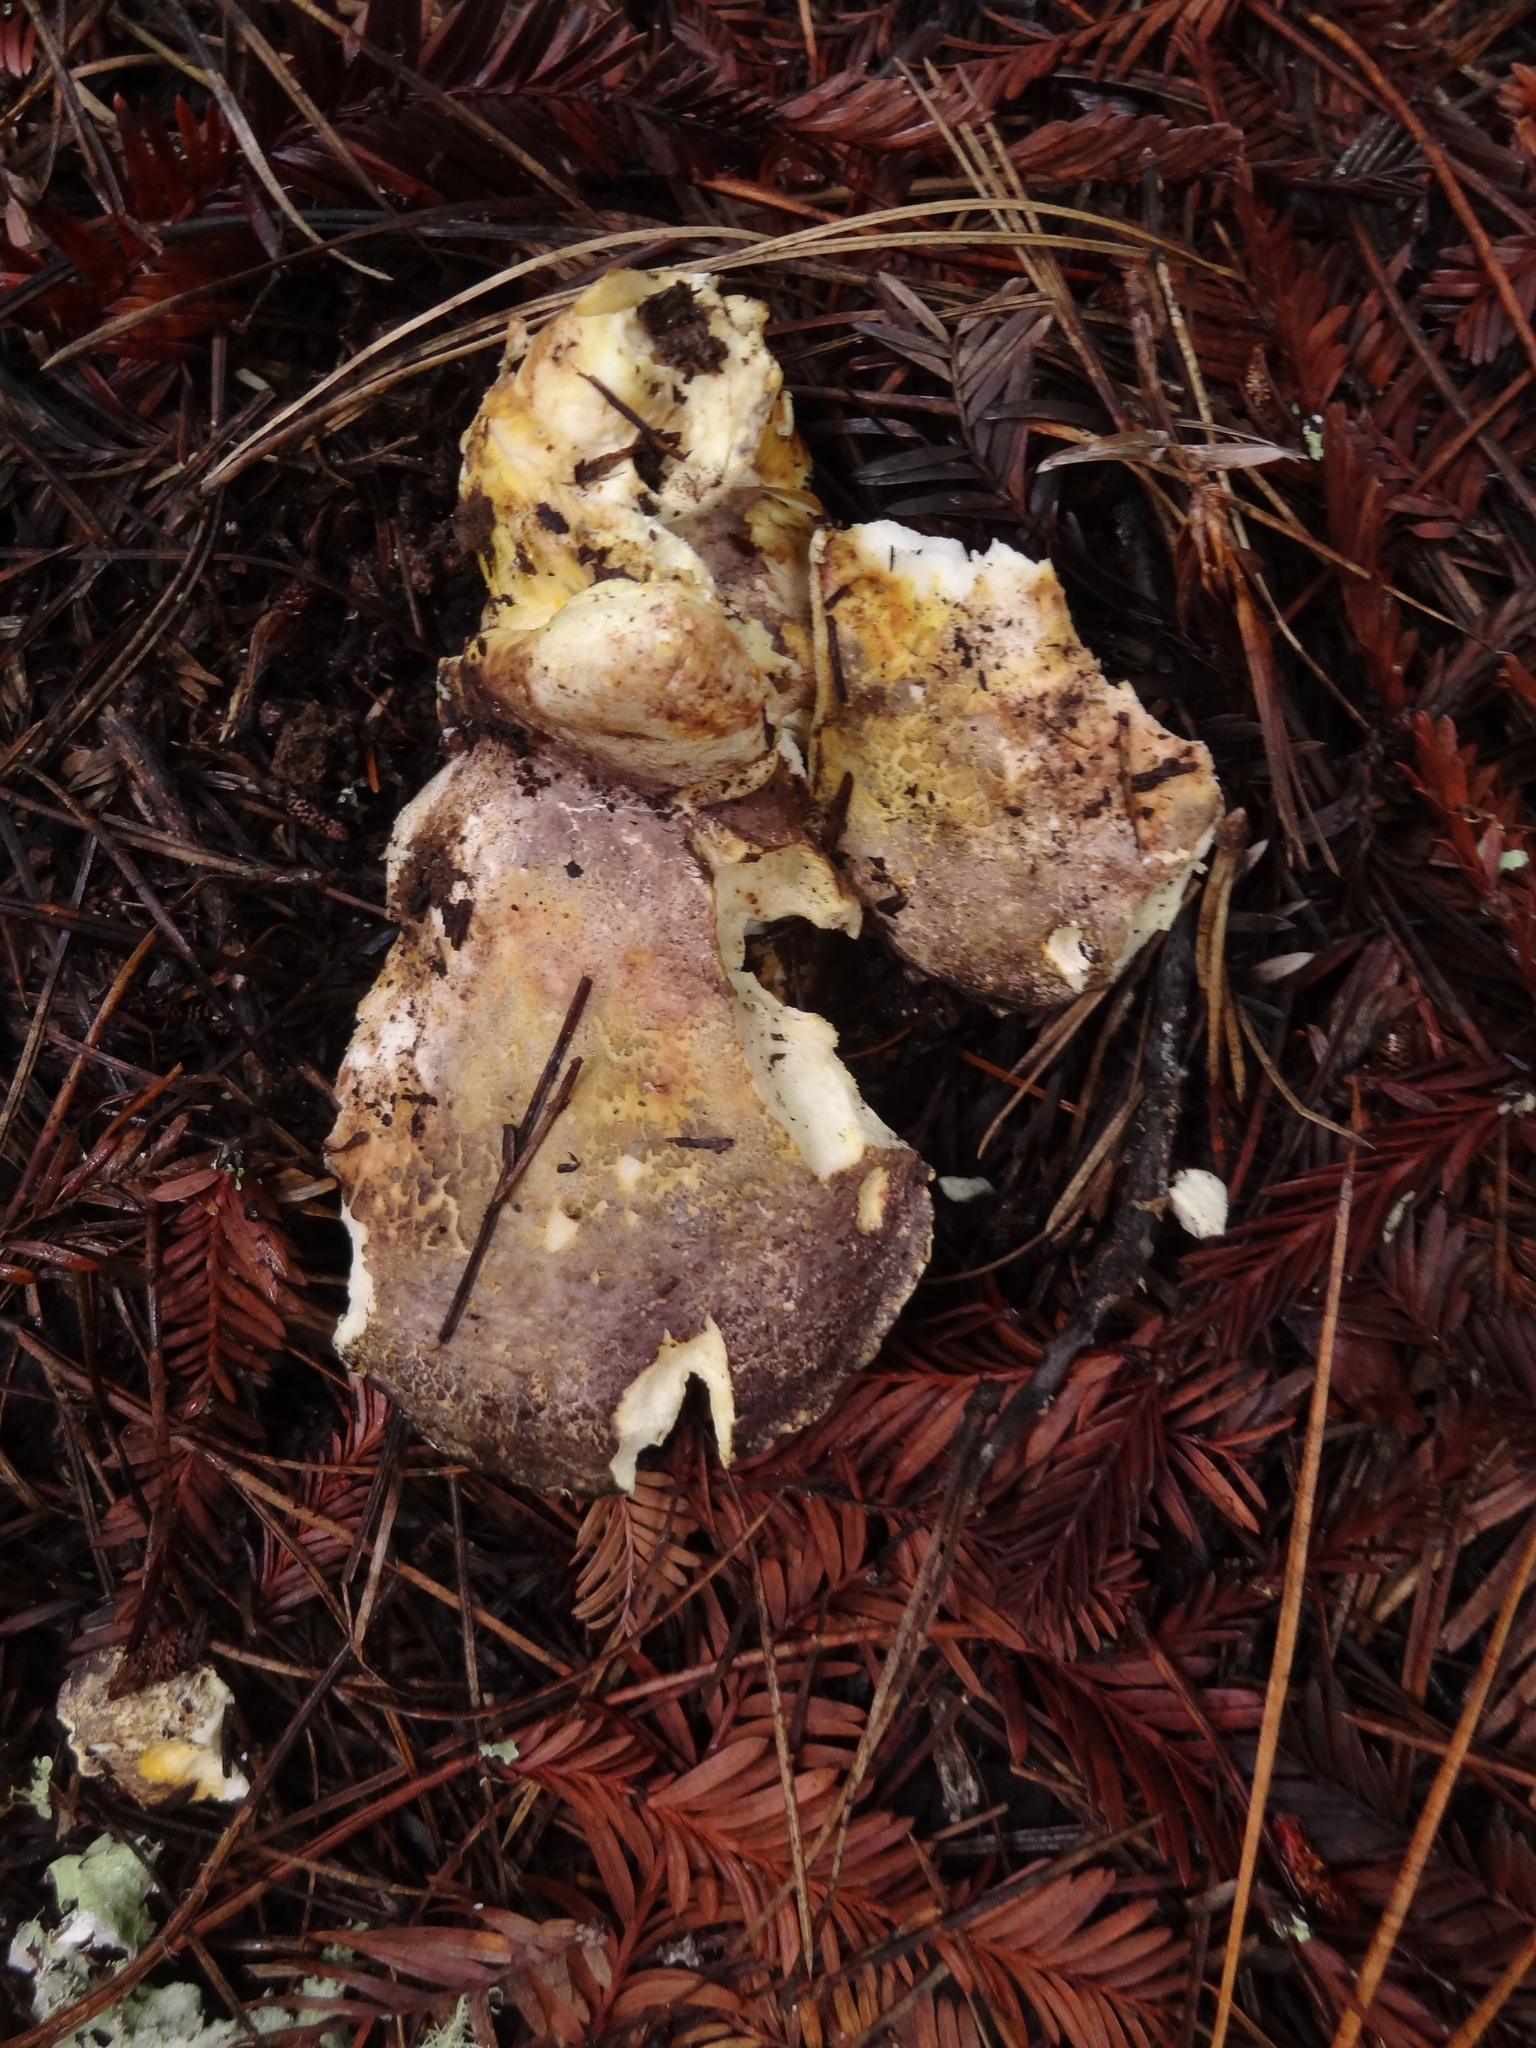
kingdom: Fungi
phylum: Basidiomycota
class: Agaricomycetes
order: Russulales
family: Albatrellaceae
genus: Albatrellus
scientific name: Albatrellus subrubescens
